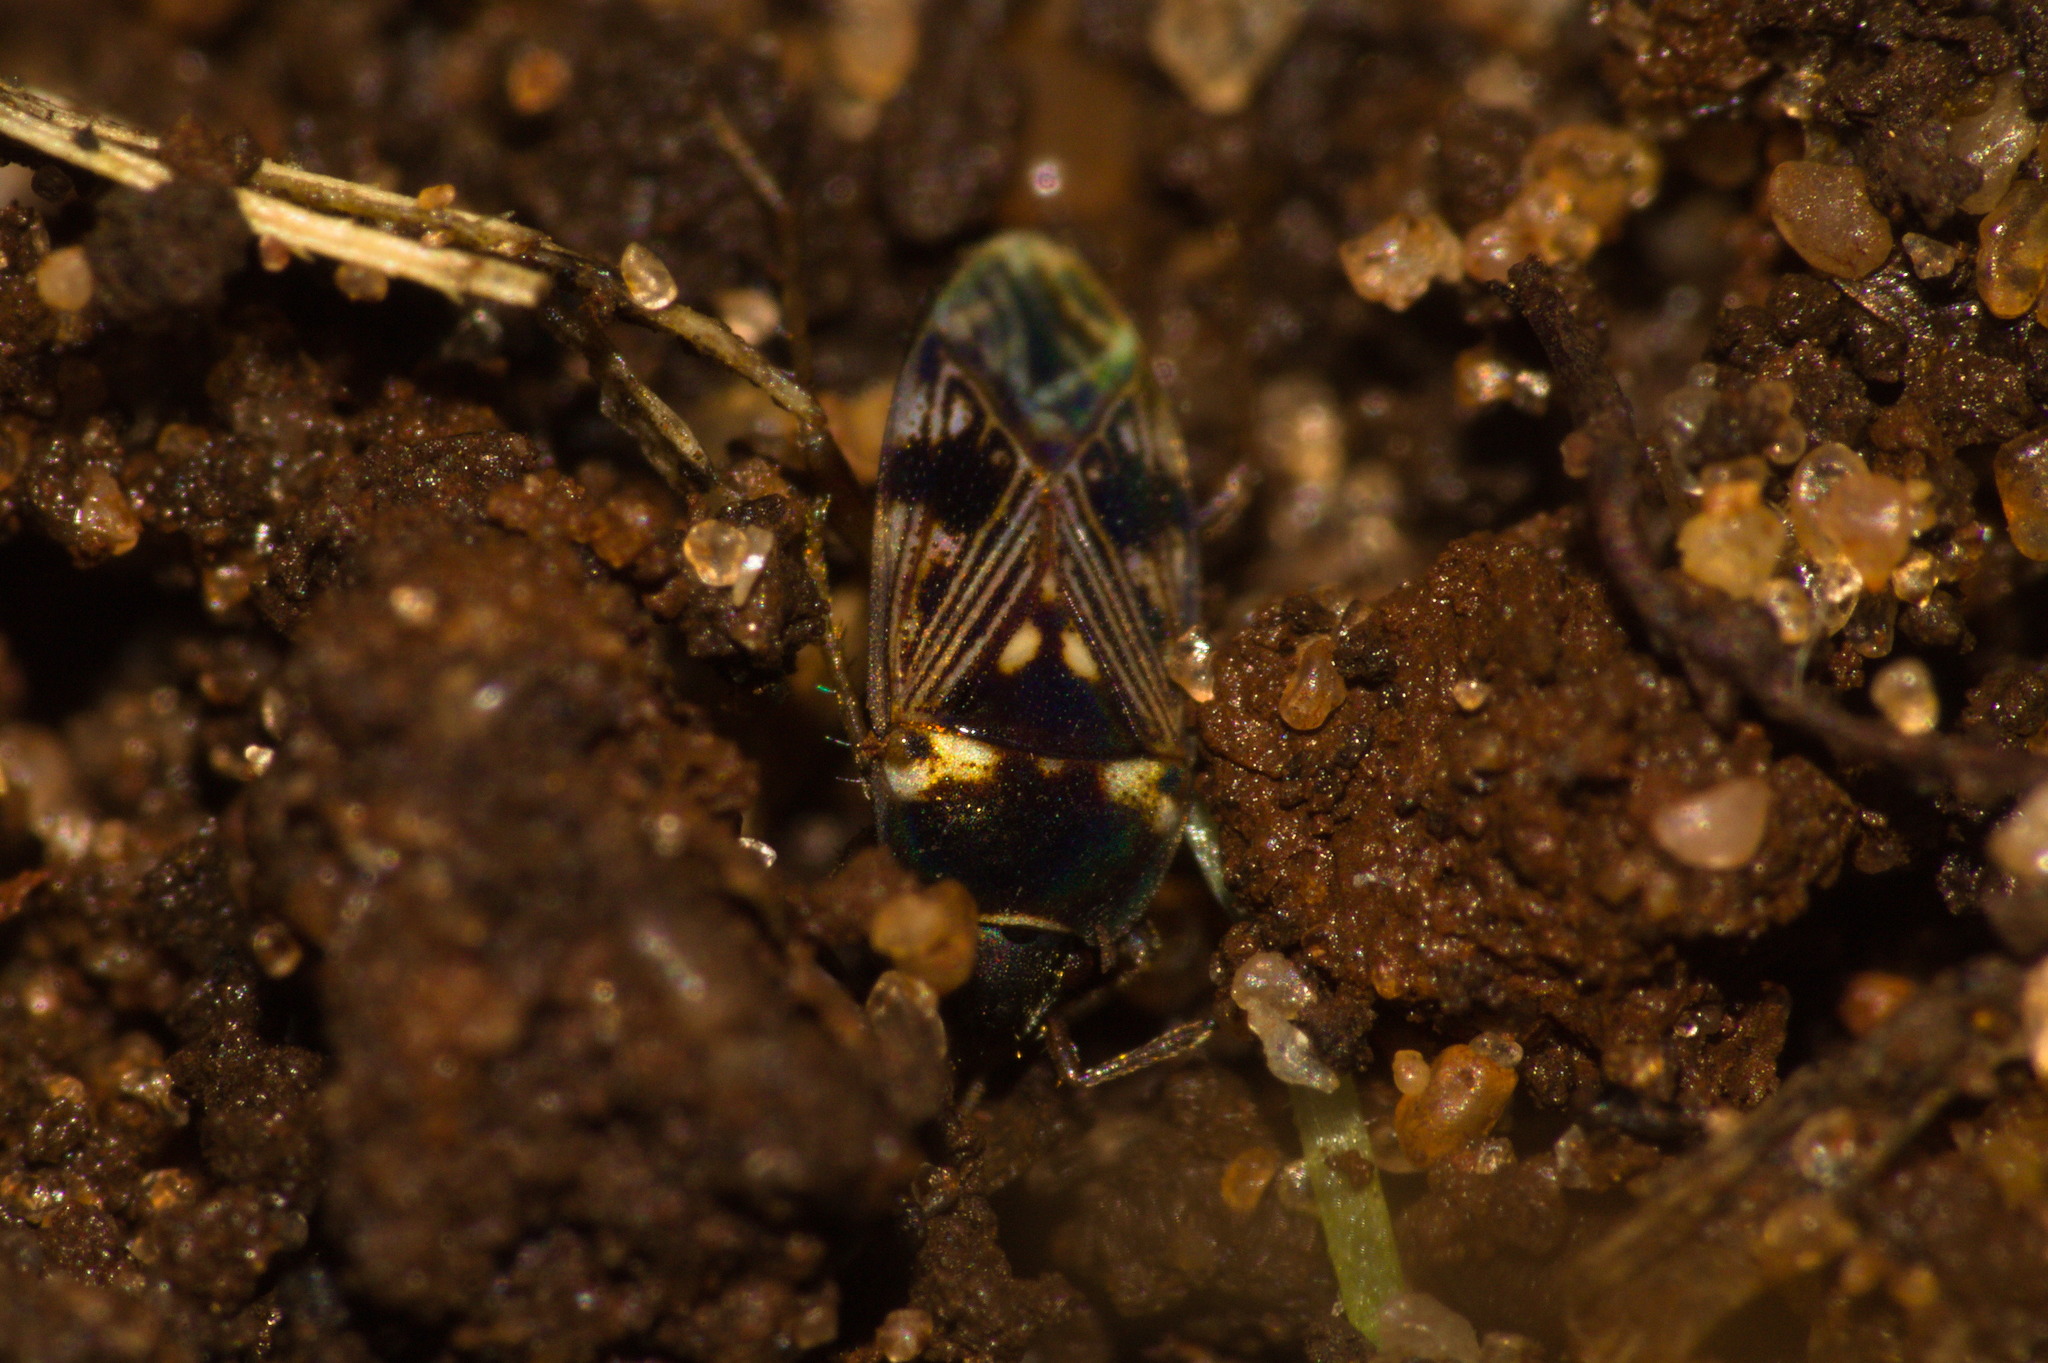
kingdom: Animalia
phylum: Arthropoda
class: Insecta
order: Hemiptera
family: Rhyparochromidae
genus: Cryphula
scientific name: Cryphula affinis
